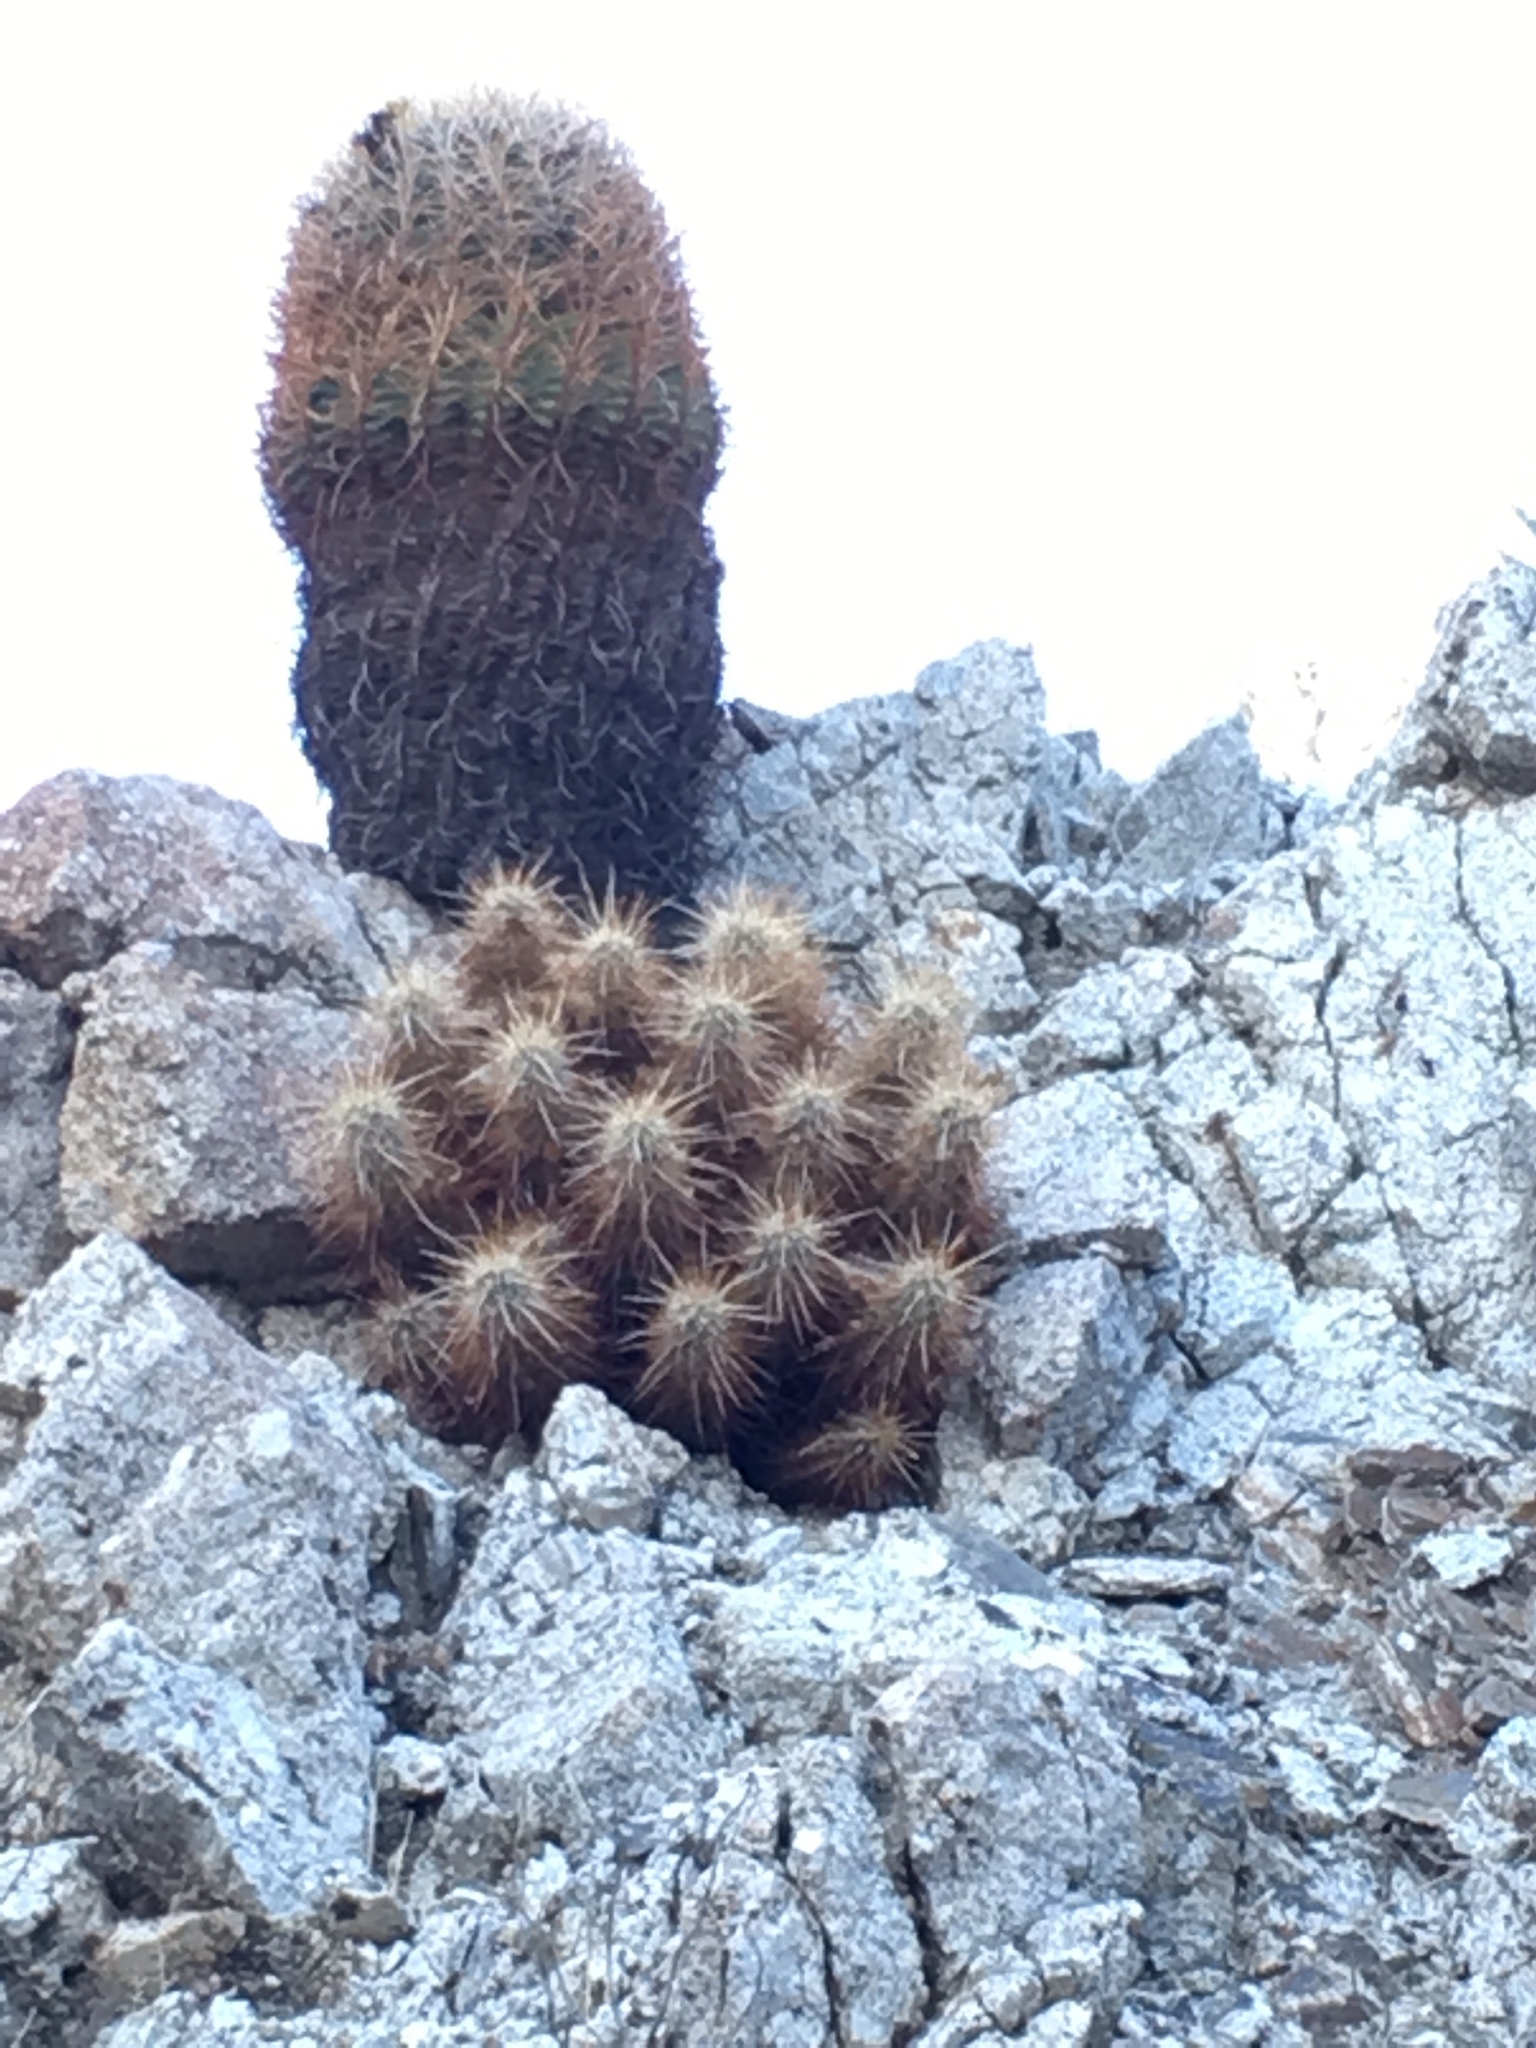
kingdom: Plantae
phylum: Tracheophyta
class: Magnoliopsida
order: Caryophyllales
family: Cactaceae
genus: Echinocereus
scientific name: Echinocereus engelmannii
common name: Engelmann's hedgehog cactus
